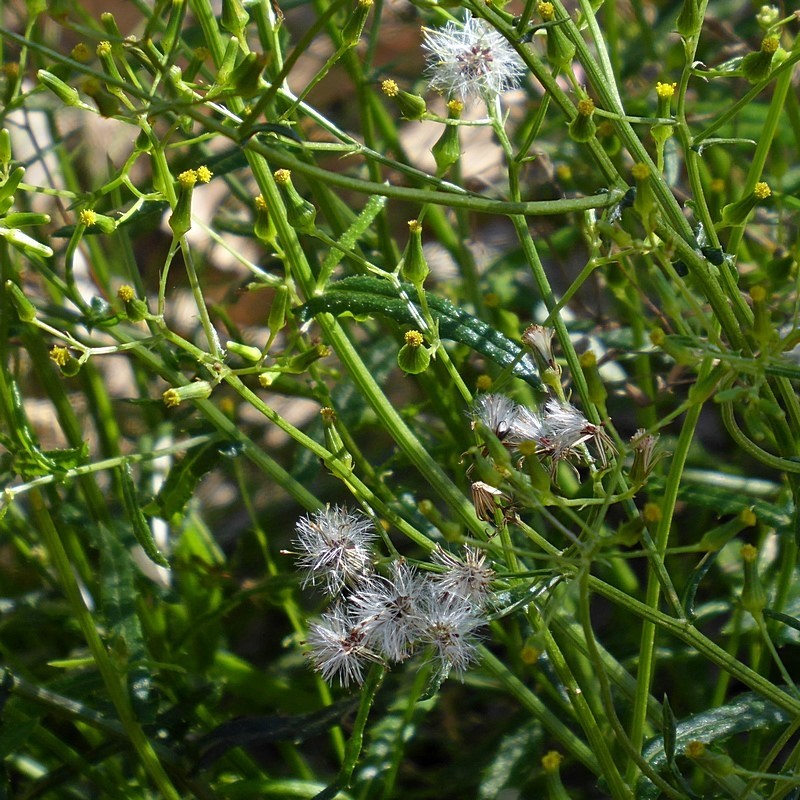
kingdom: Plantae
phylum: Tracheophyta
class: Magnoliopsida
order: Asterales
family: Asteraceae
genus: Senecio
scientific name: Senecio hispidulus
